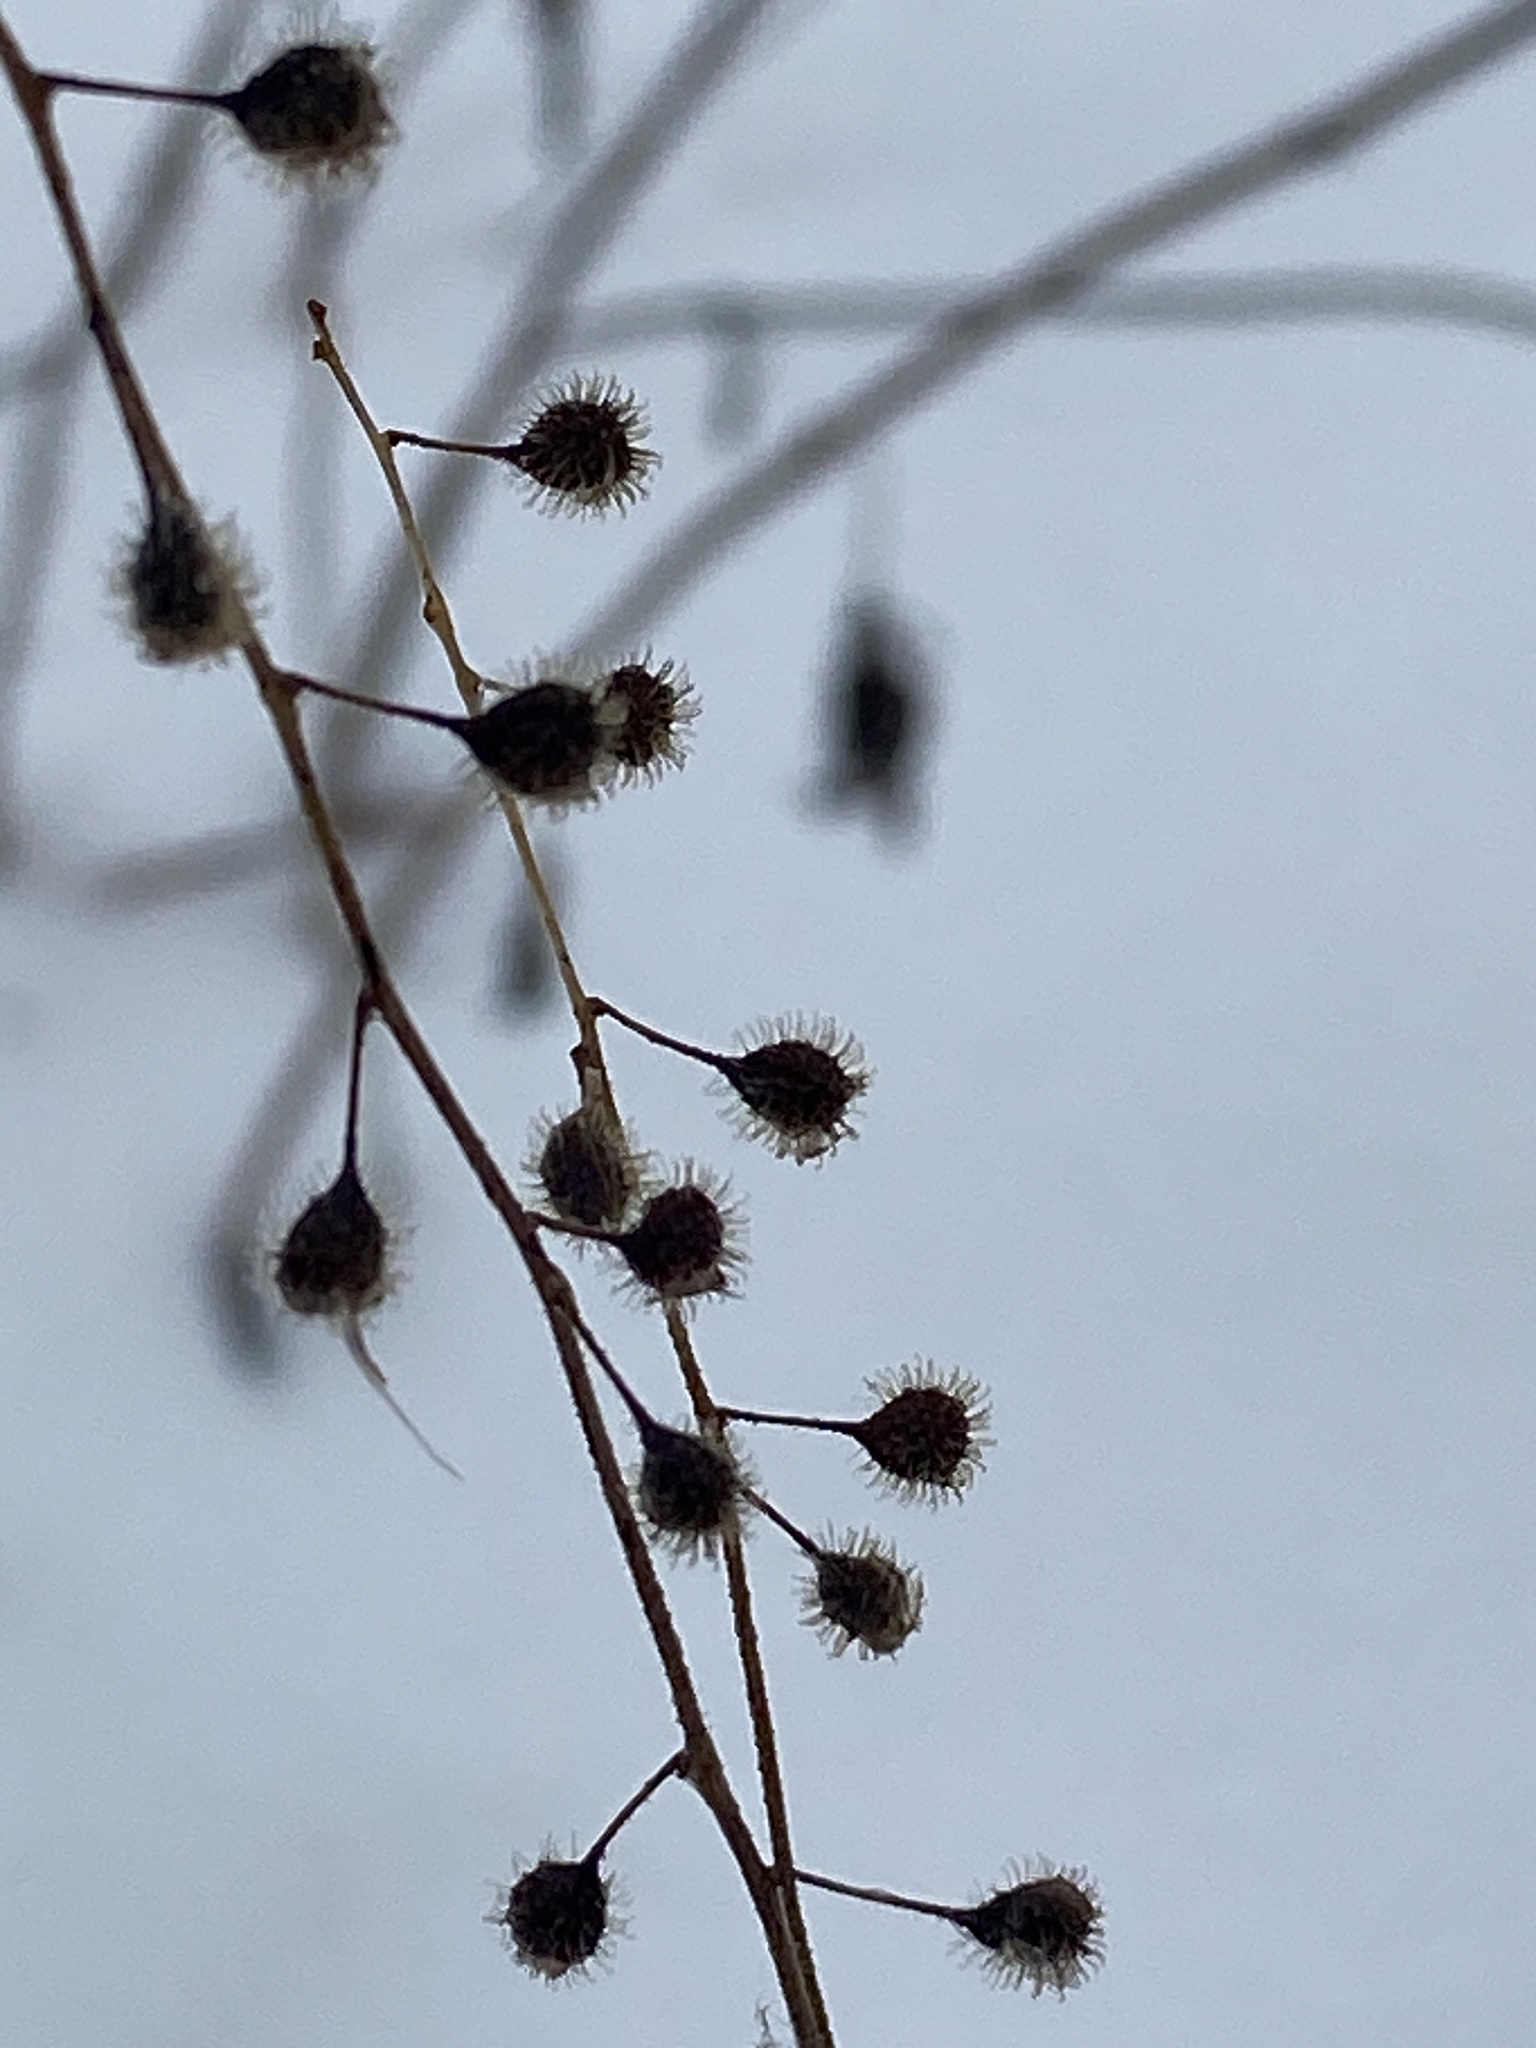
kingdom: Plantae
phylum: Tracheophyta
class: Magnoliopsida
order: Myrtales
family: Onagraceae
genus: Circaea
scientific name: Circaea canadensis
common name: Broad-leaved enchanter's nightshade
